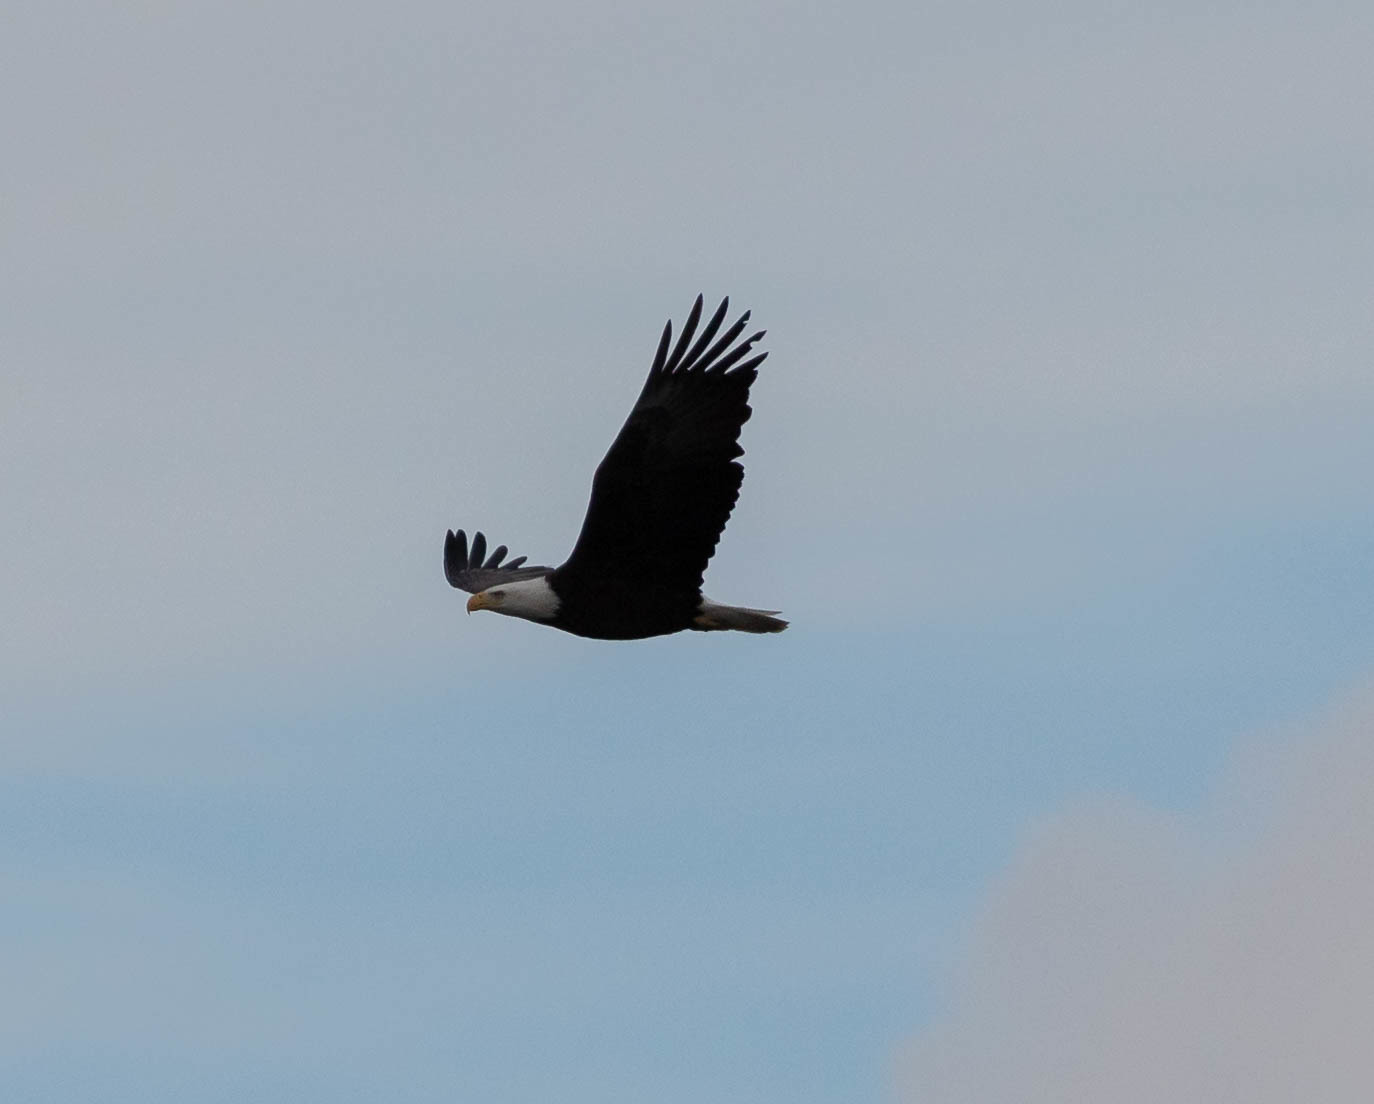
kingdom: Animalia
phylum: Chordata
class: Aves
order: Accipitriformes
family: Accipitridae
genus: Haliaeetus
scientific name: Haliaeetus leucocephalus
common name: Bald eagle
